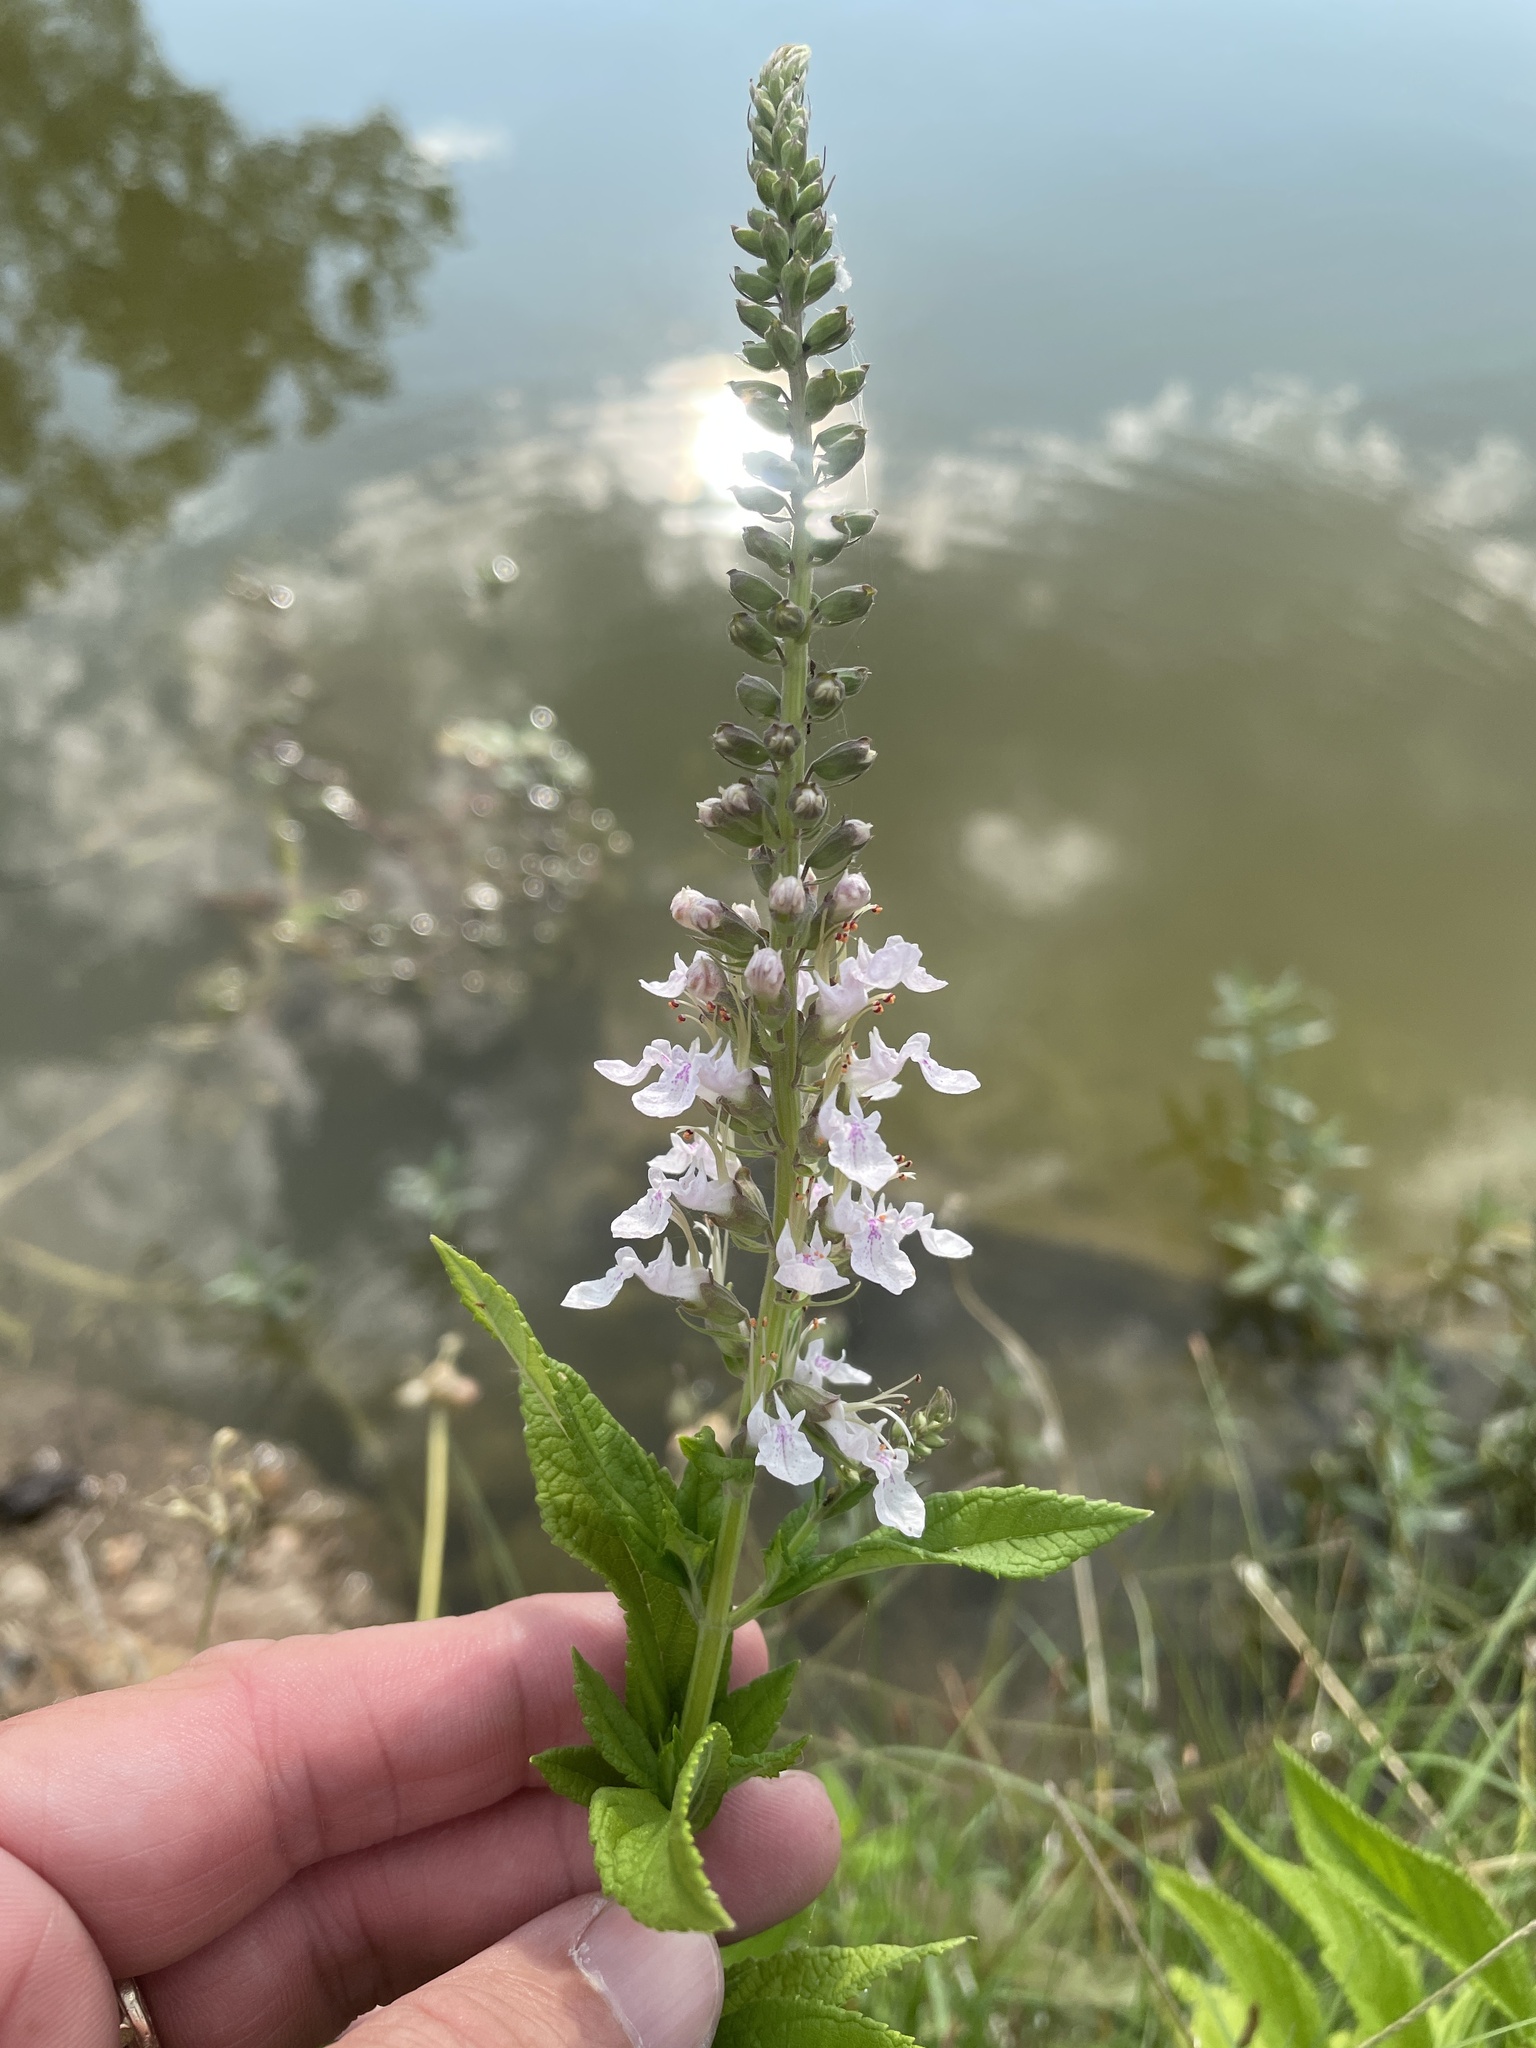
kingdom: Plantae
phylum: Tracheophyta
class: Magnoliopsida
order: Lamiales
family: Lamiaceae
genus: Teucrium
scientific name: Teucrium canadense
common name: American germander
